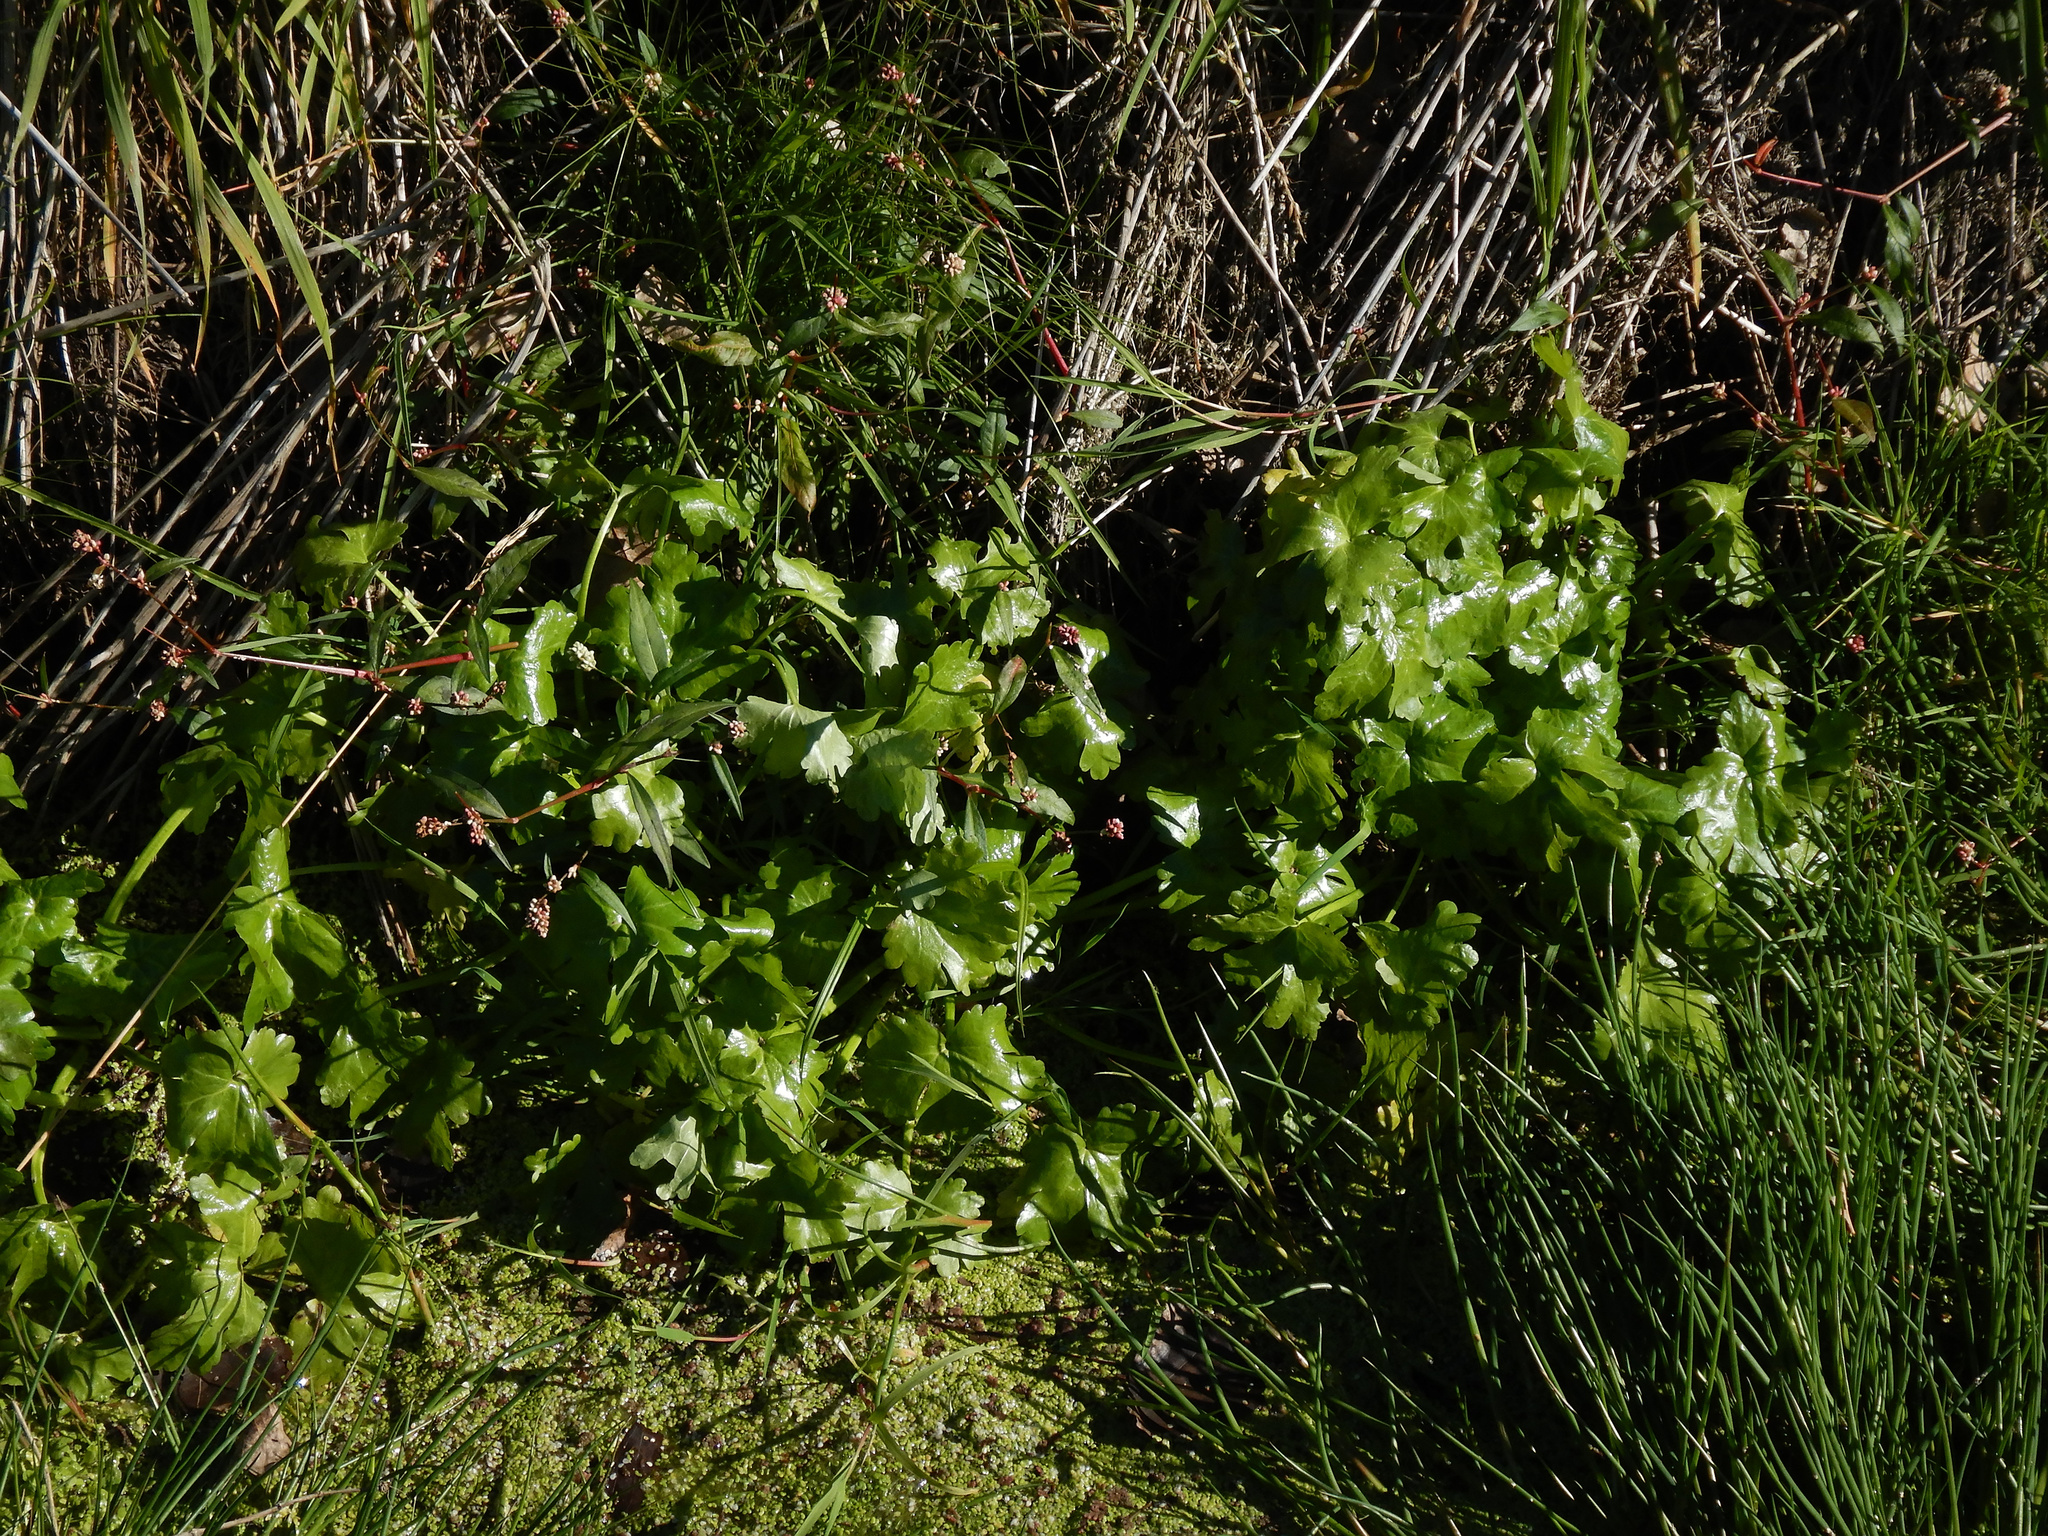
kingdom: Plantae
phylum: Tracheophyta
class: Magnoliopsida
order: Ranunculales
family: Ranunculaceae
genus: Ranunculus
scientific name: Ranunculus sceleratus
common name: Celery-leaved buttercup
